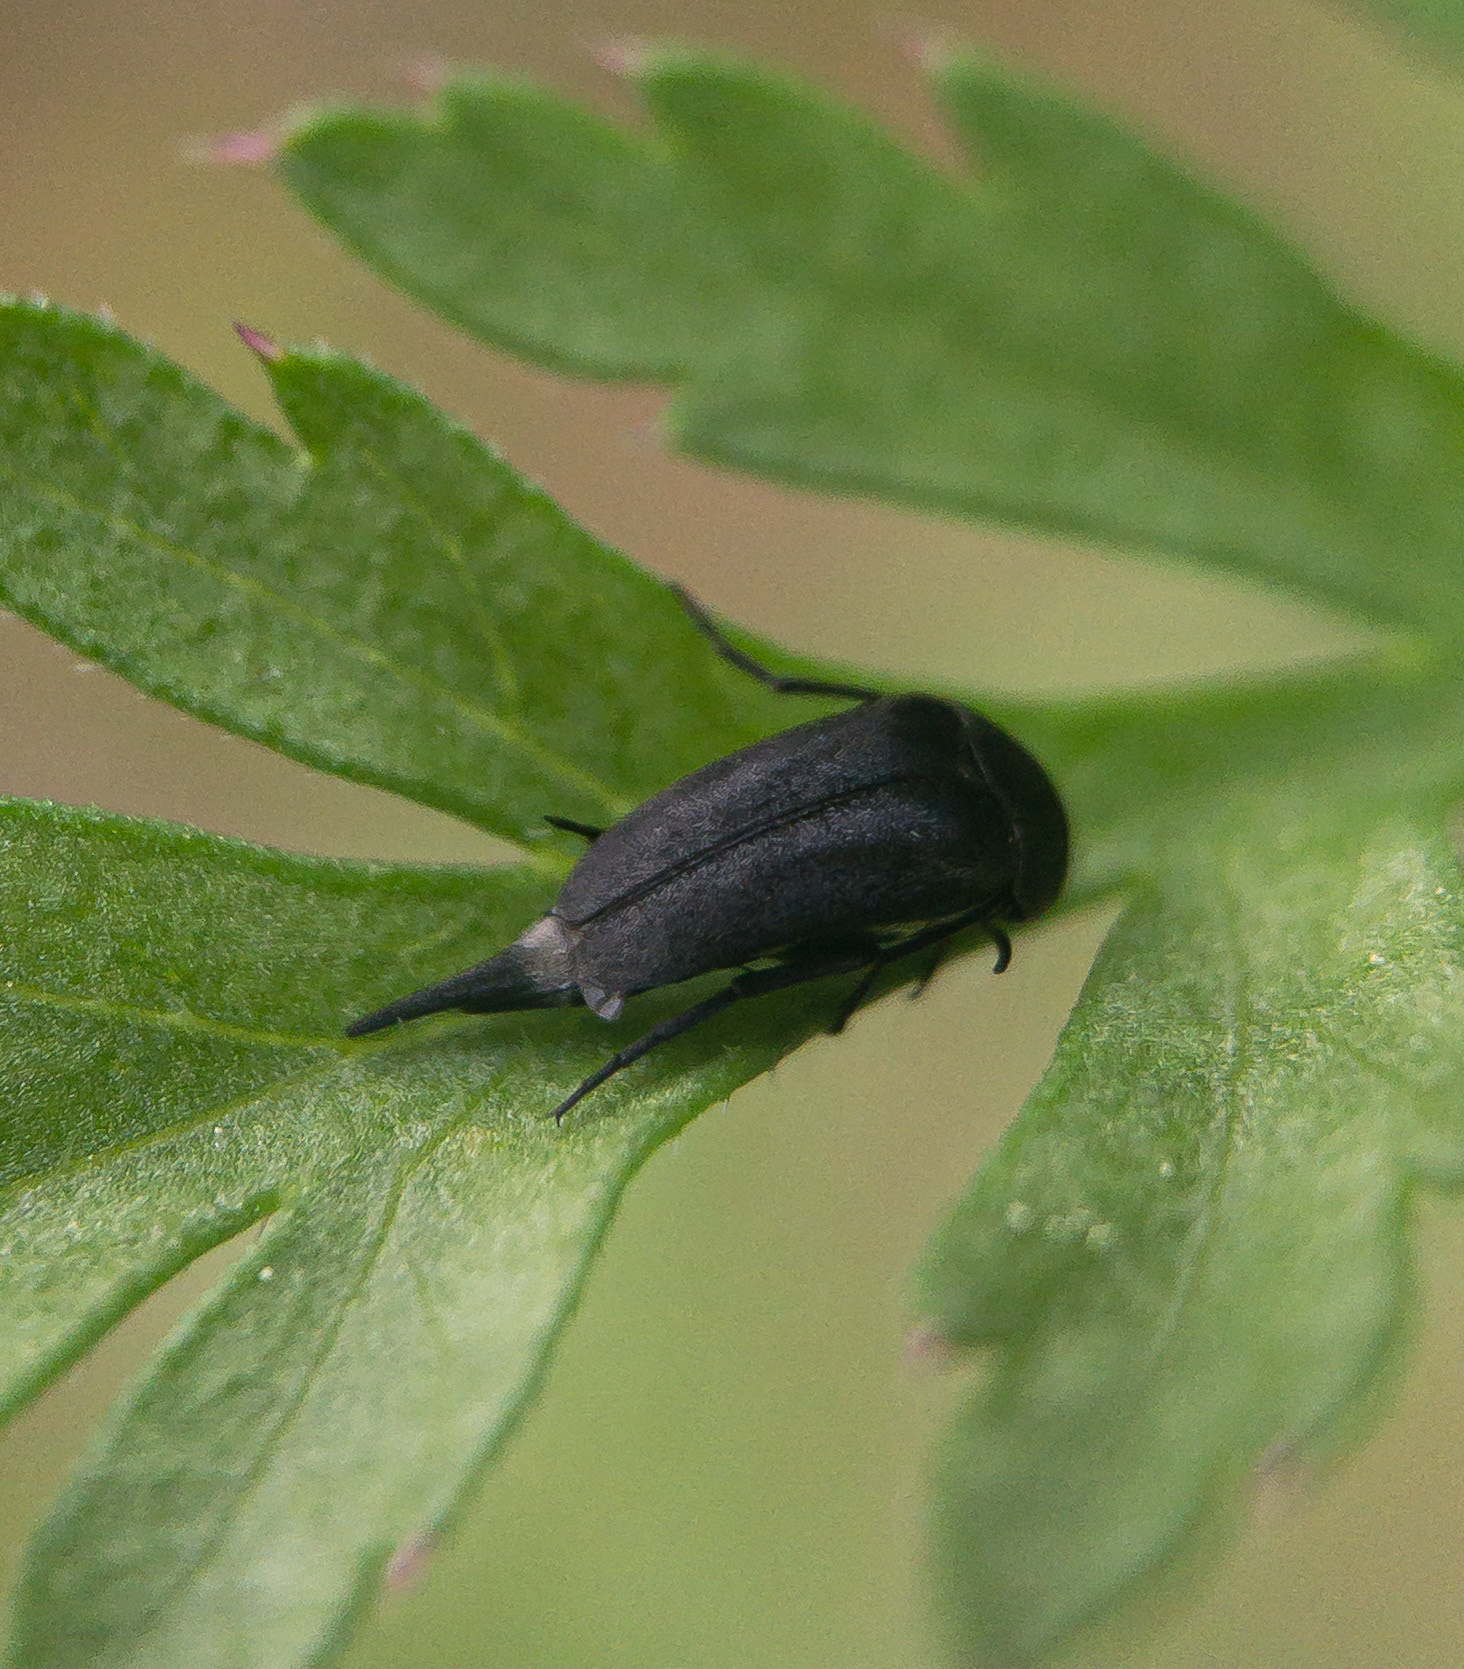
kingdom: Animalia
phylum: Arthropoda
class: Insecta
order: Coleoptera
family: Mordellidae
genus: Mordella
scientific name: Mordella lunulata
